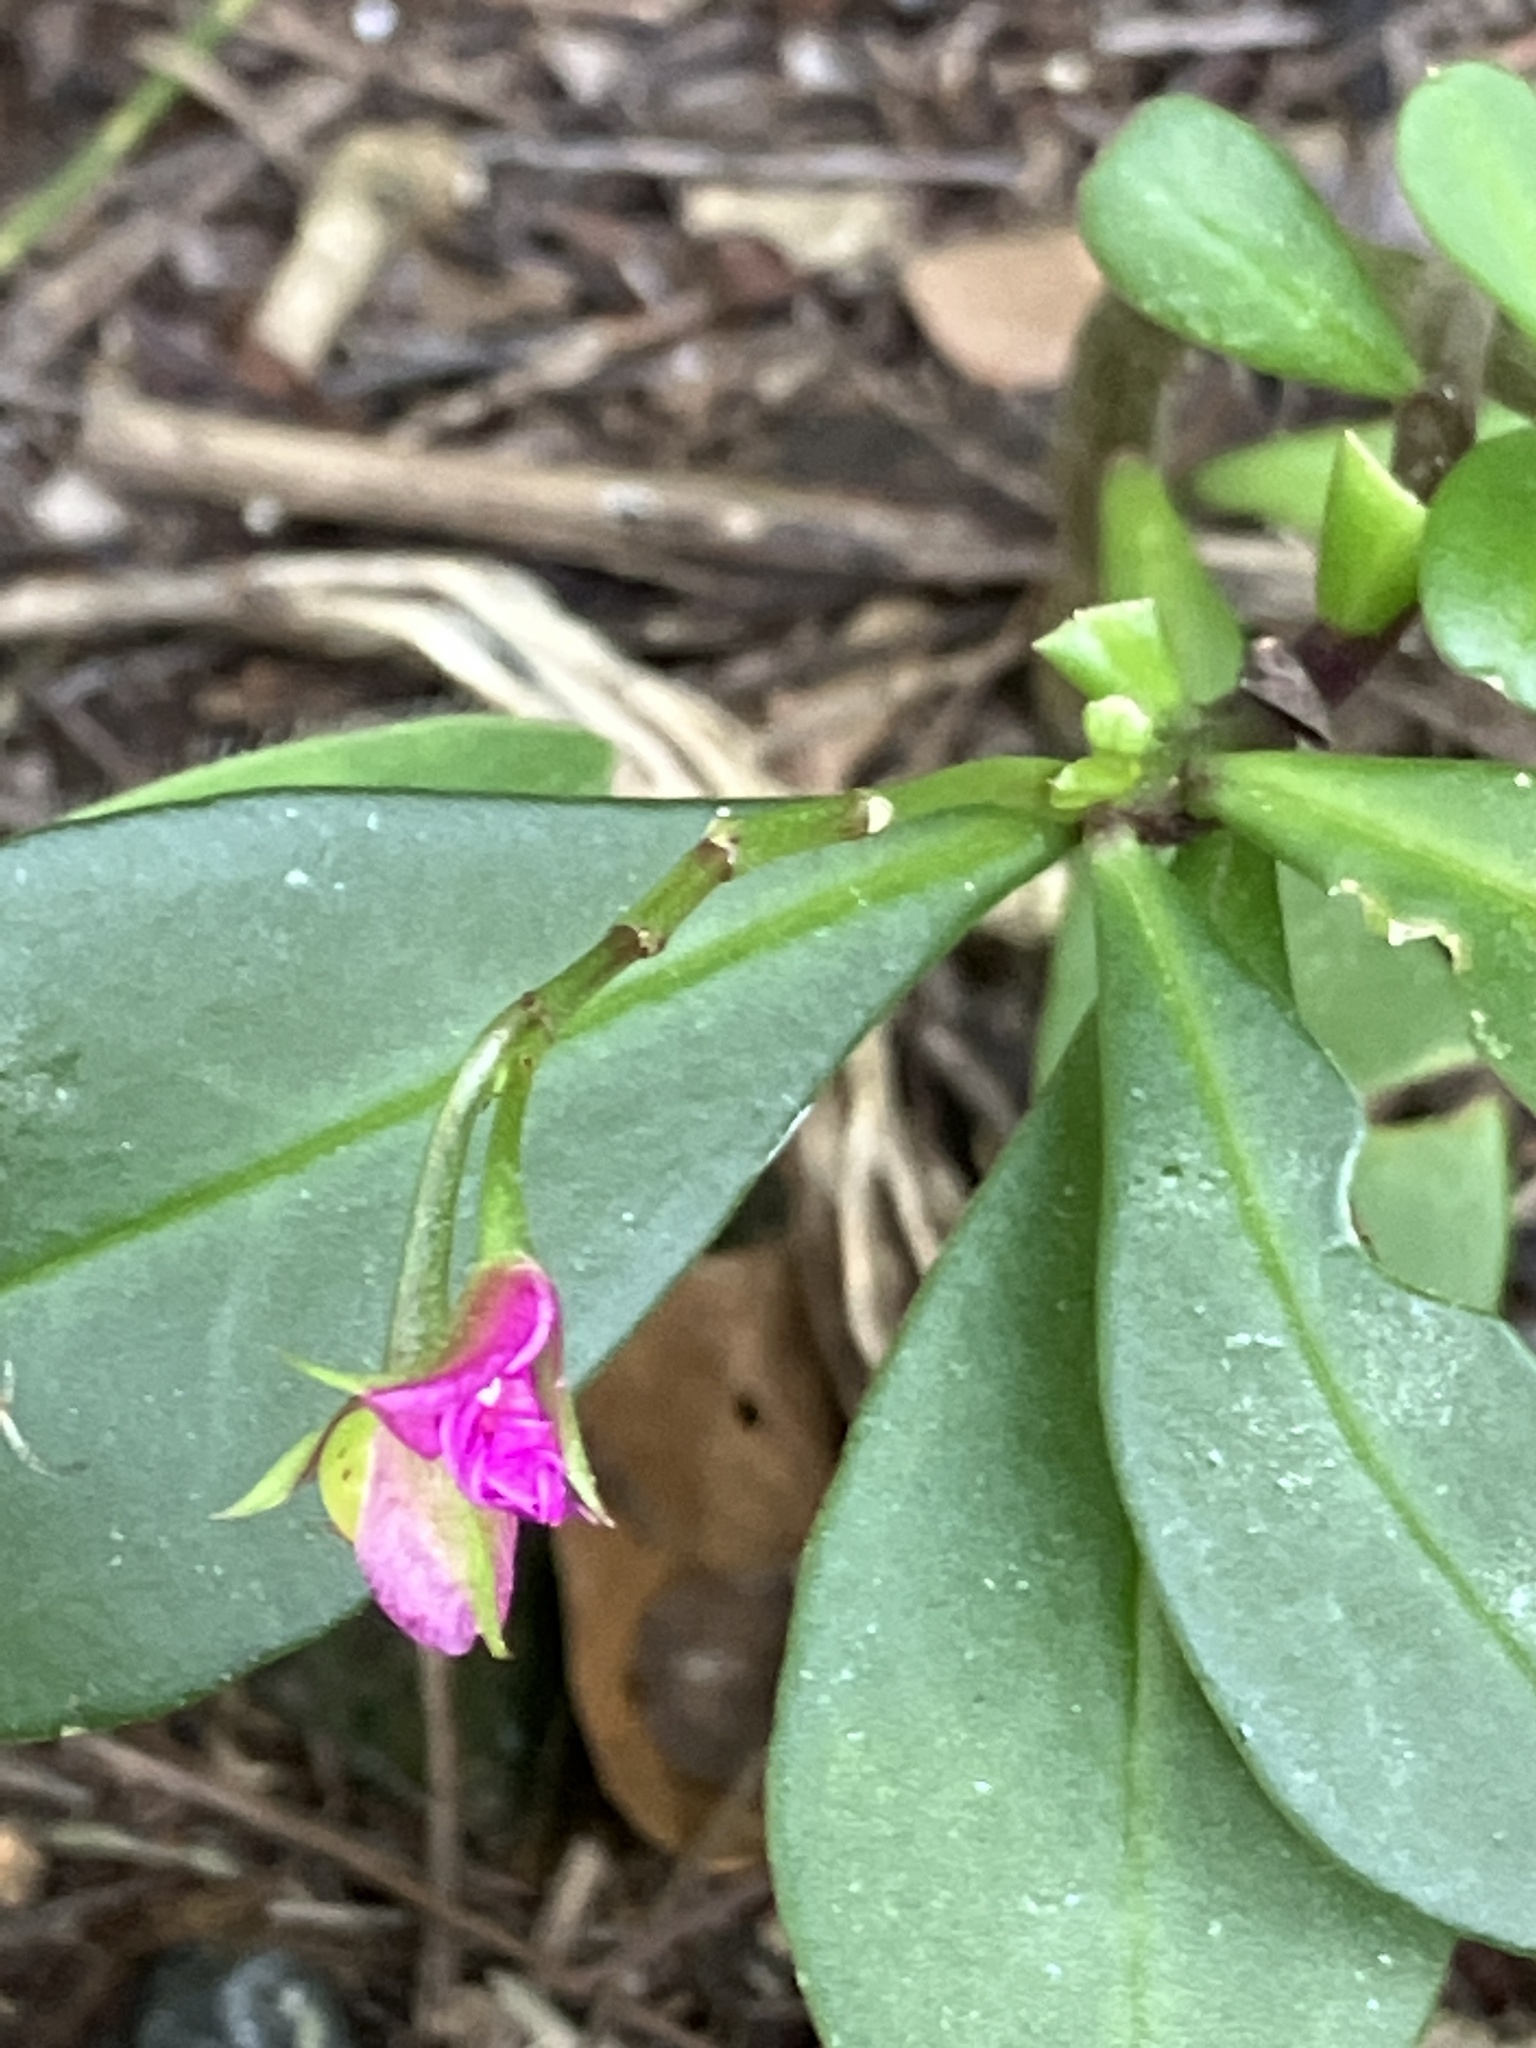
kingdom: Plantae
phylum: Tracheophyta
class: Magnoliopsida
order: Caryophyllales
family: Talinaceae
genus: Talinum
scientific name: Talinum fruticosum
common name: Verdolaga-francesa
